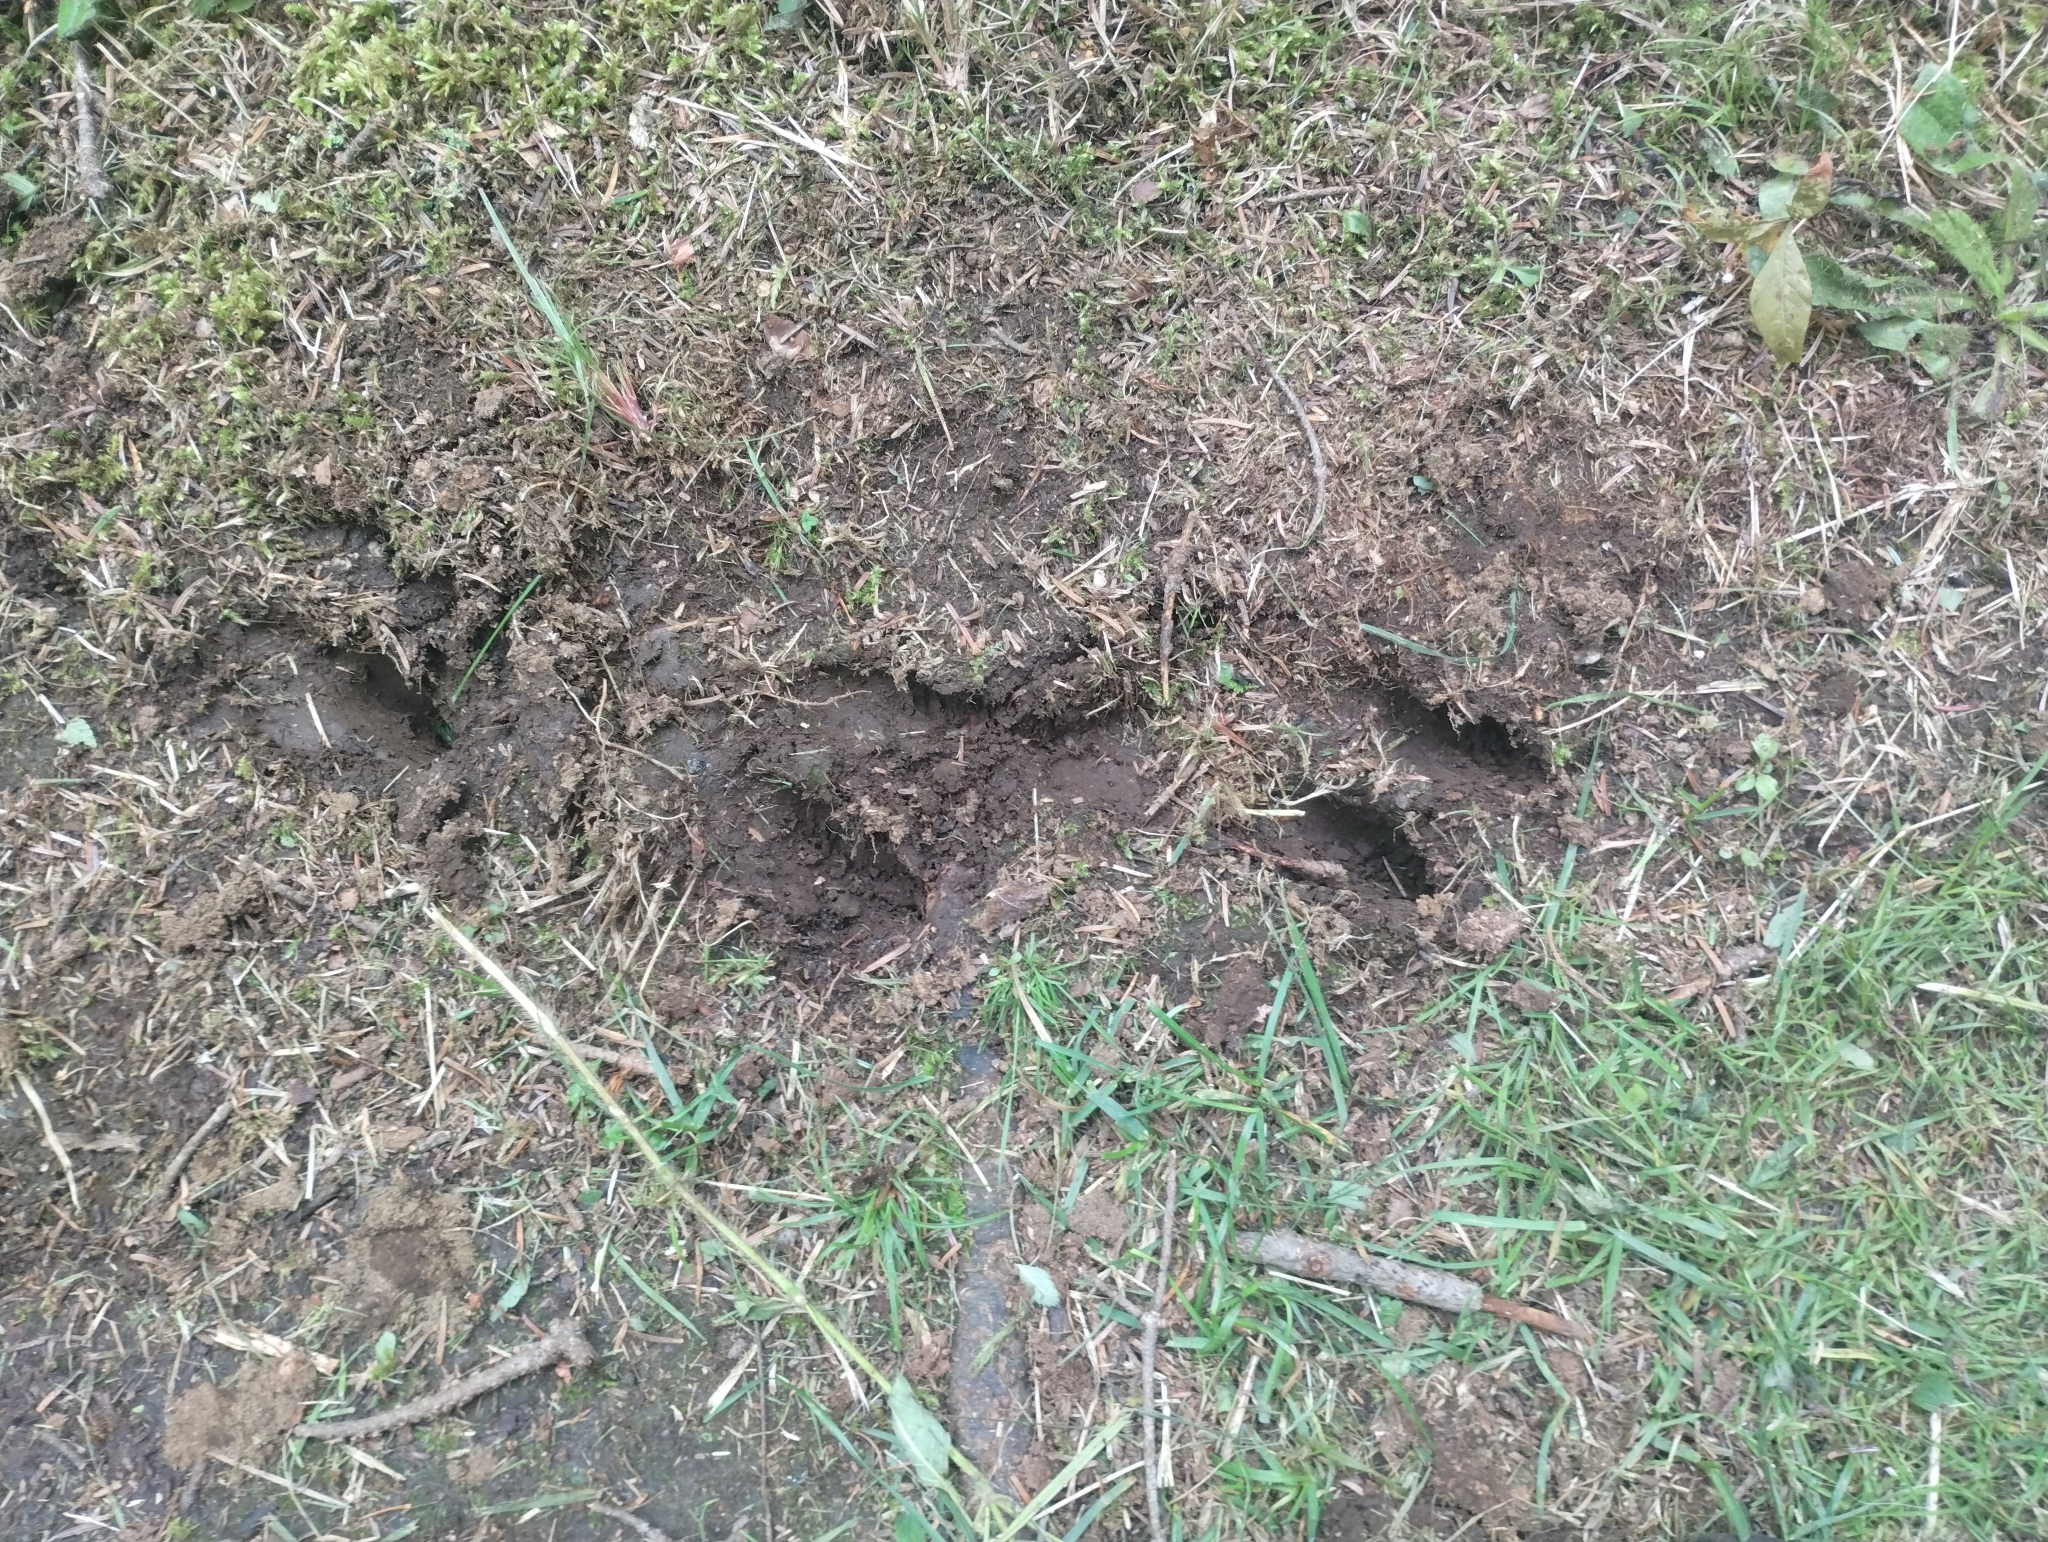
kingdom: Animalia
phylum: Chordata
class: Mammalia
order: Artiodactyla
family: Cervidae
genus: Odocoileus
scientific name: Odocoileus virginianus
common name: White-tailed deer
